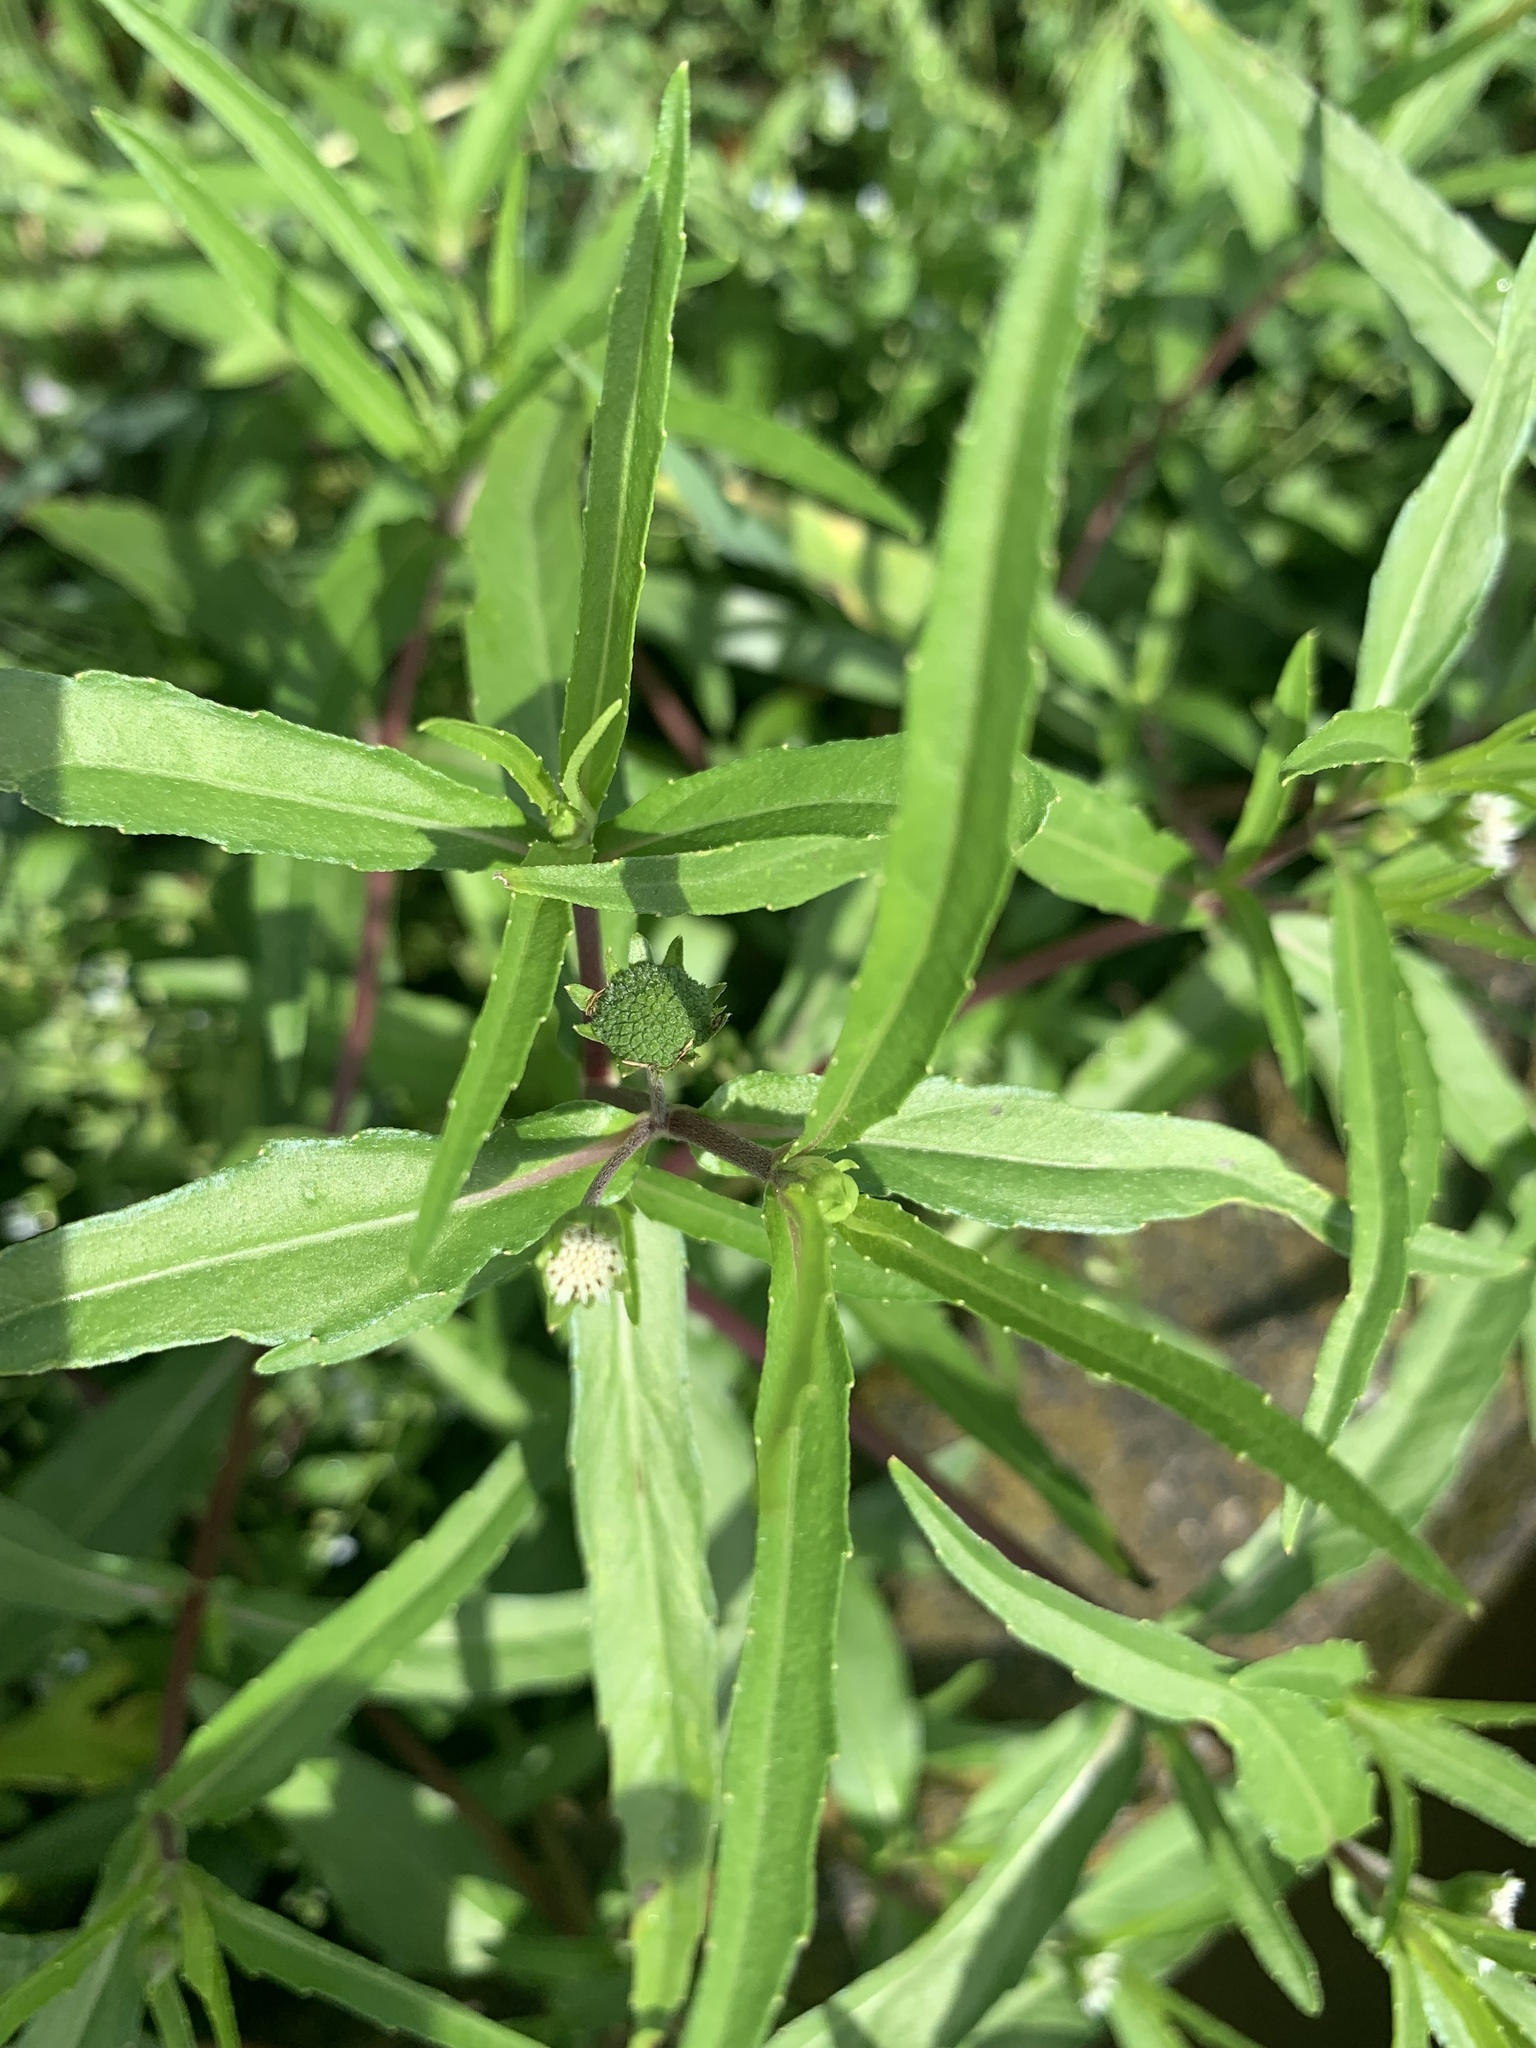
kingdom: Plantae
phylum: Tracheophyta
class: Magnoliopsida
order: Asterales
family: Asteraceae
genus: Eclipta
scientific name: Eclipta prostrata
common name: False daisy
